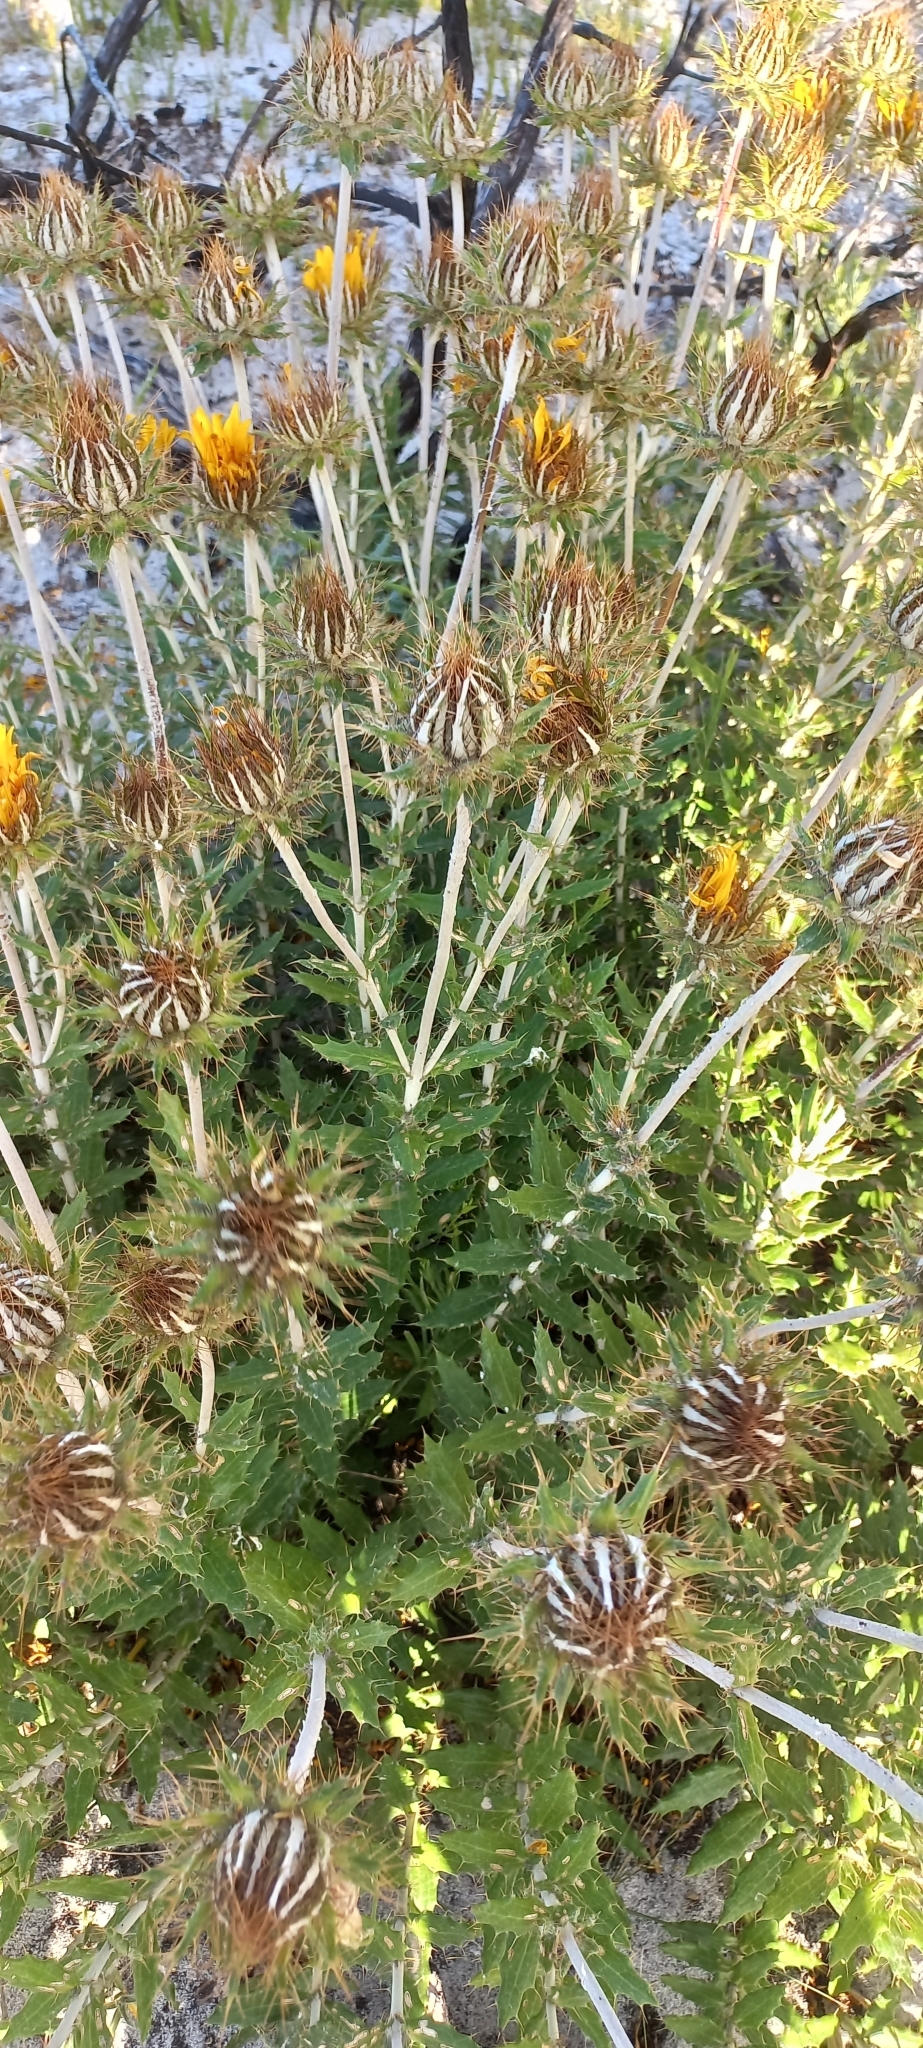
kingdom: Plantae
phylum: Tracheophyta
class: Magnoliopsida
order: Asterales
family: Asteraceae
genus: Berkheya
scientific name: Berkheya barbata
